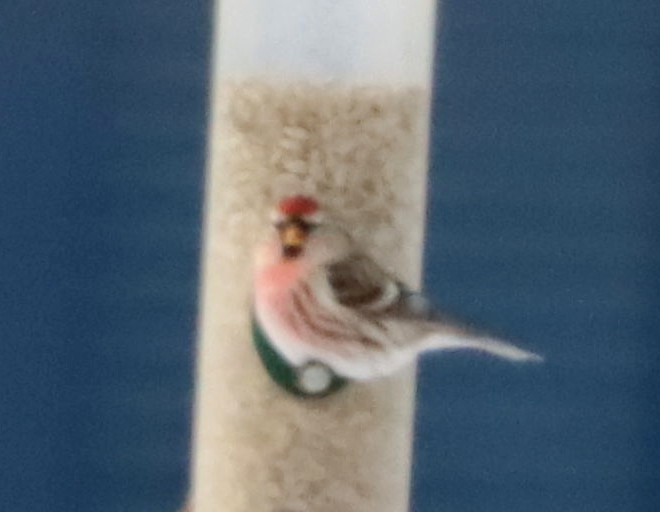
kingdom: Animalia
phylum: Chordata
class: Aves
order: Passeriformes
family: Fringillidae
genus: Acanthis
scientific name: Acanthis flammea
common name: Common redpoll
